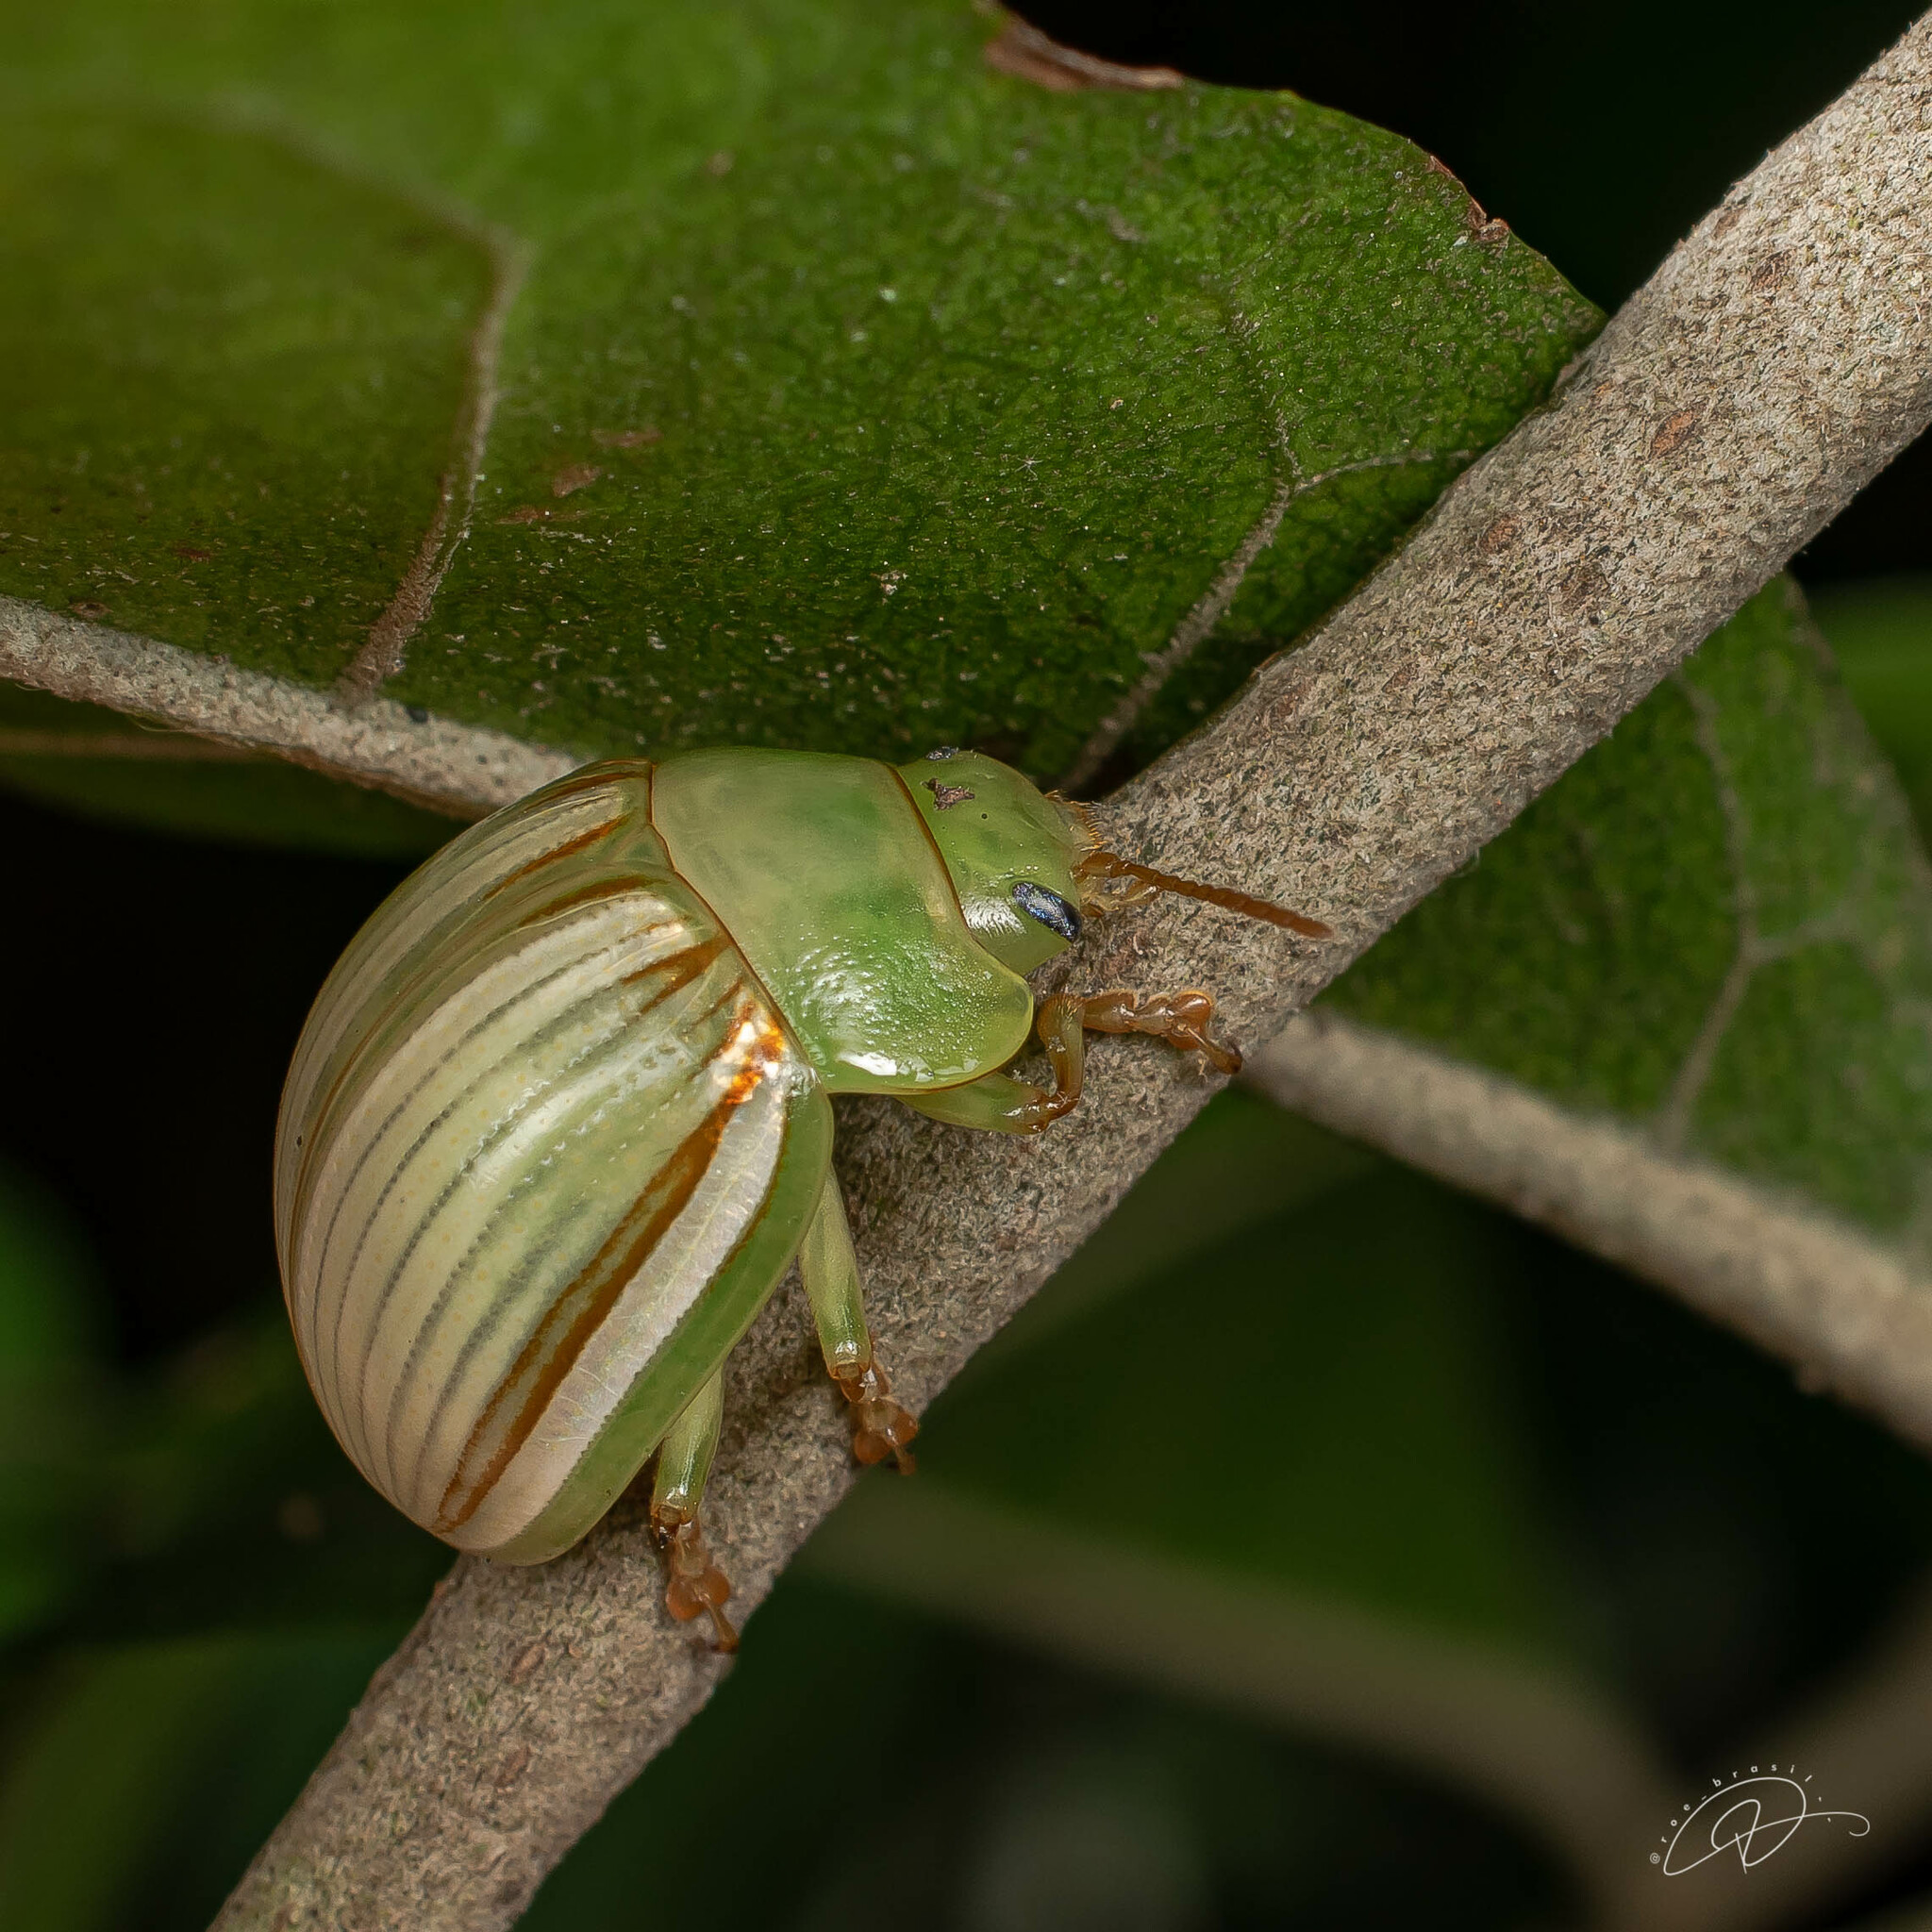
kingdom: Animalia
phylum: Arthropoda
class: Insecta
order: Coleoptera
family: Chrysomelidae
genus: Platyphora
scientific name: Platyphora
